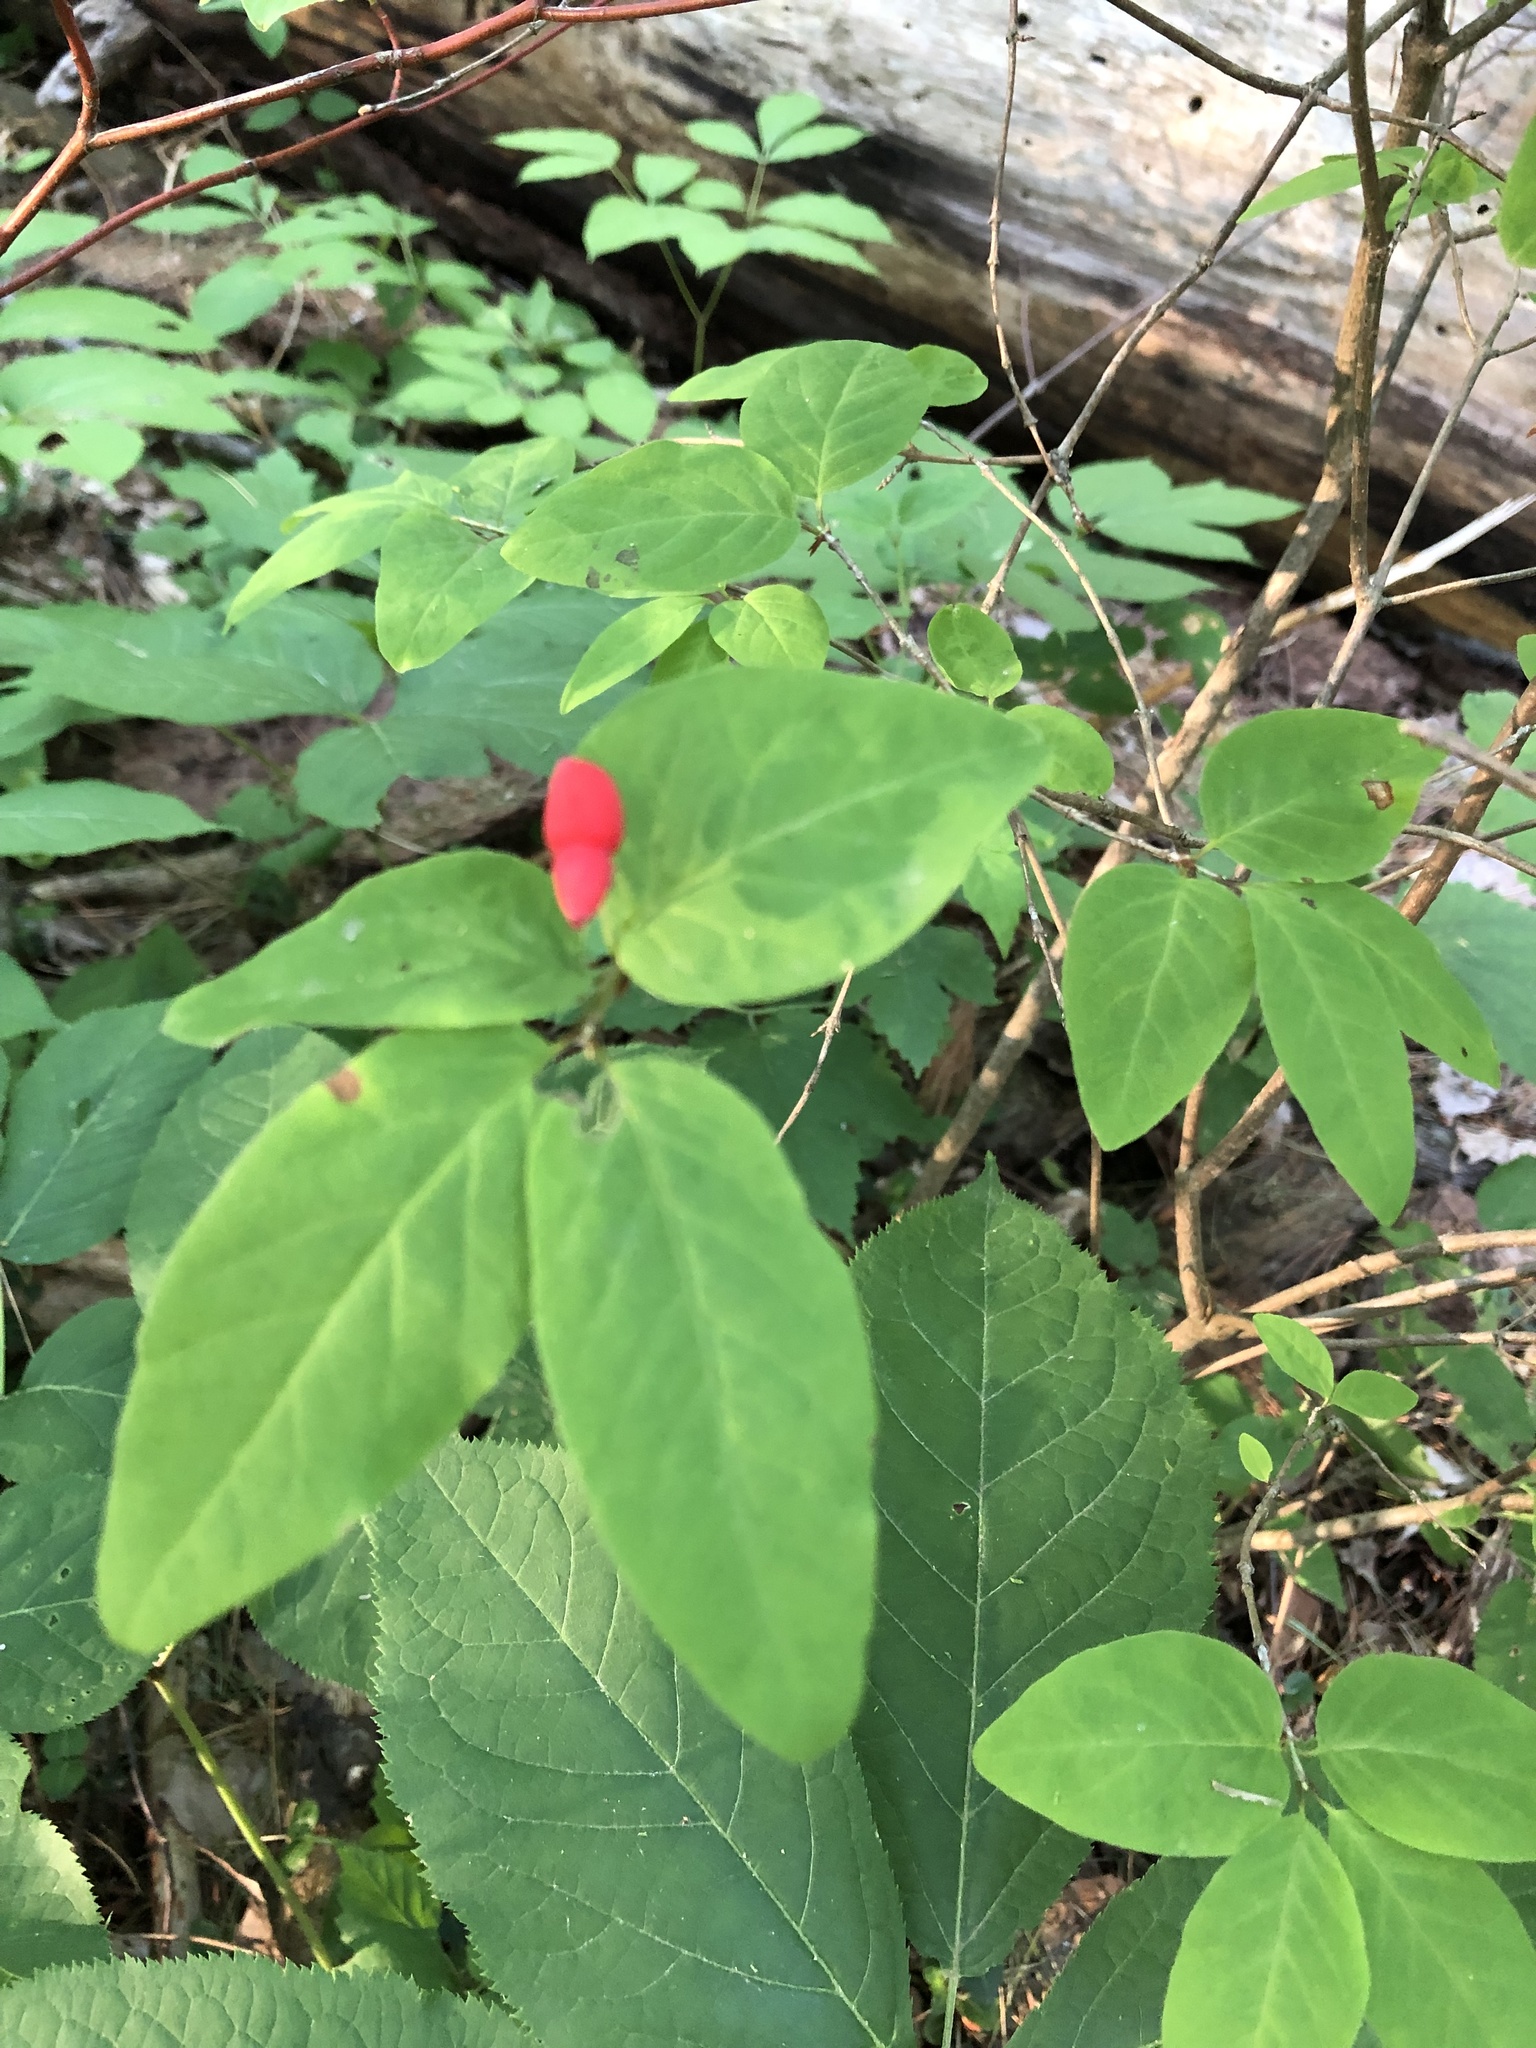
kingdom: Plantae
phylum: Tracheophyta
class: Magnoliopsida
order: Dipsacales
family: Caprifoliaceae
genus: Lonicera
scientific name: Lonicera canadensis
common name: American fly-honeysuckle
